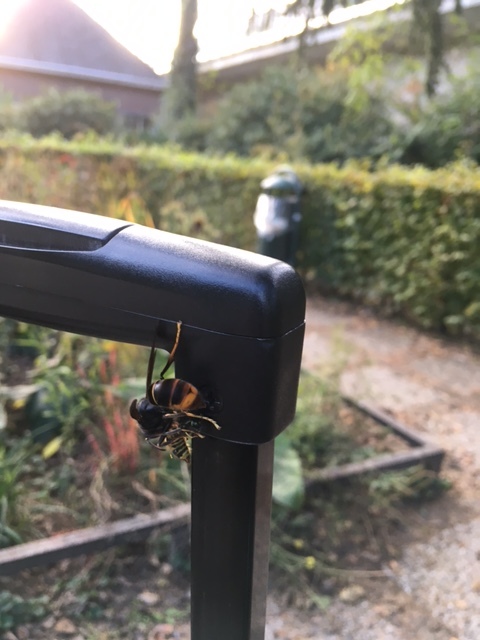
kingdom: Animalia
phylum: Arthropoda
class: Insecta
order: Hymenoptera
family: Vespidae
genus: Vespa
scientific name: Vespa velutina
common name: Asian hornet
